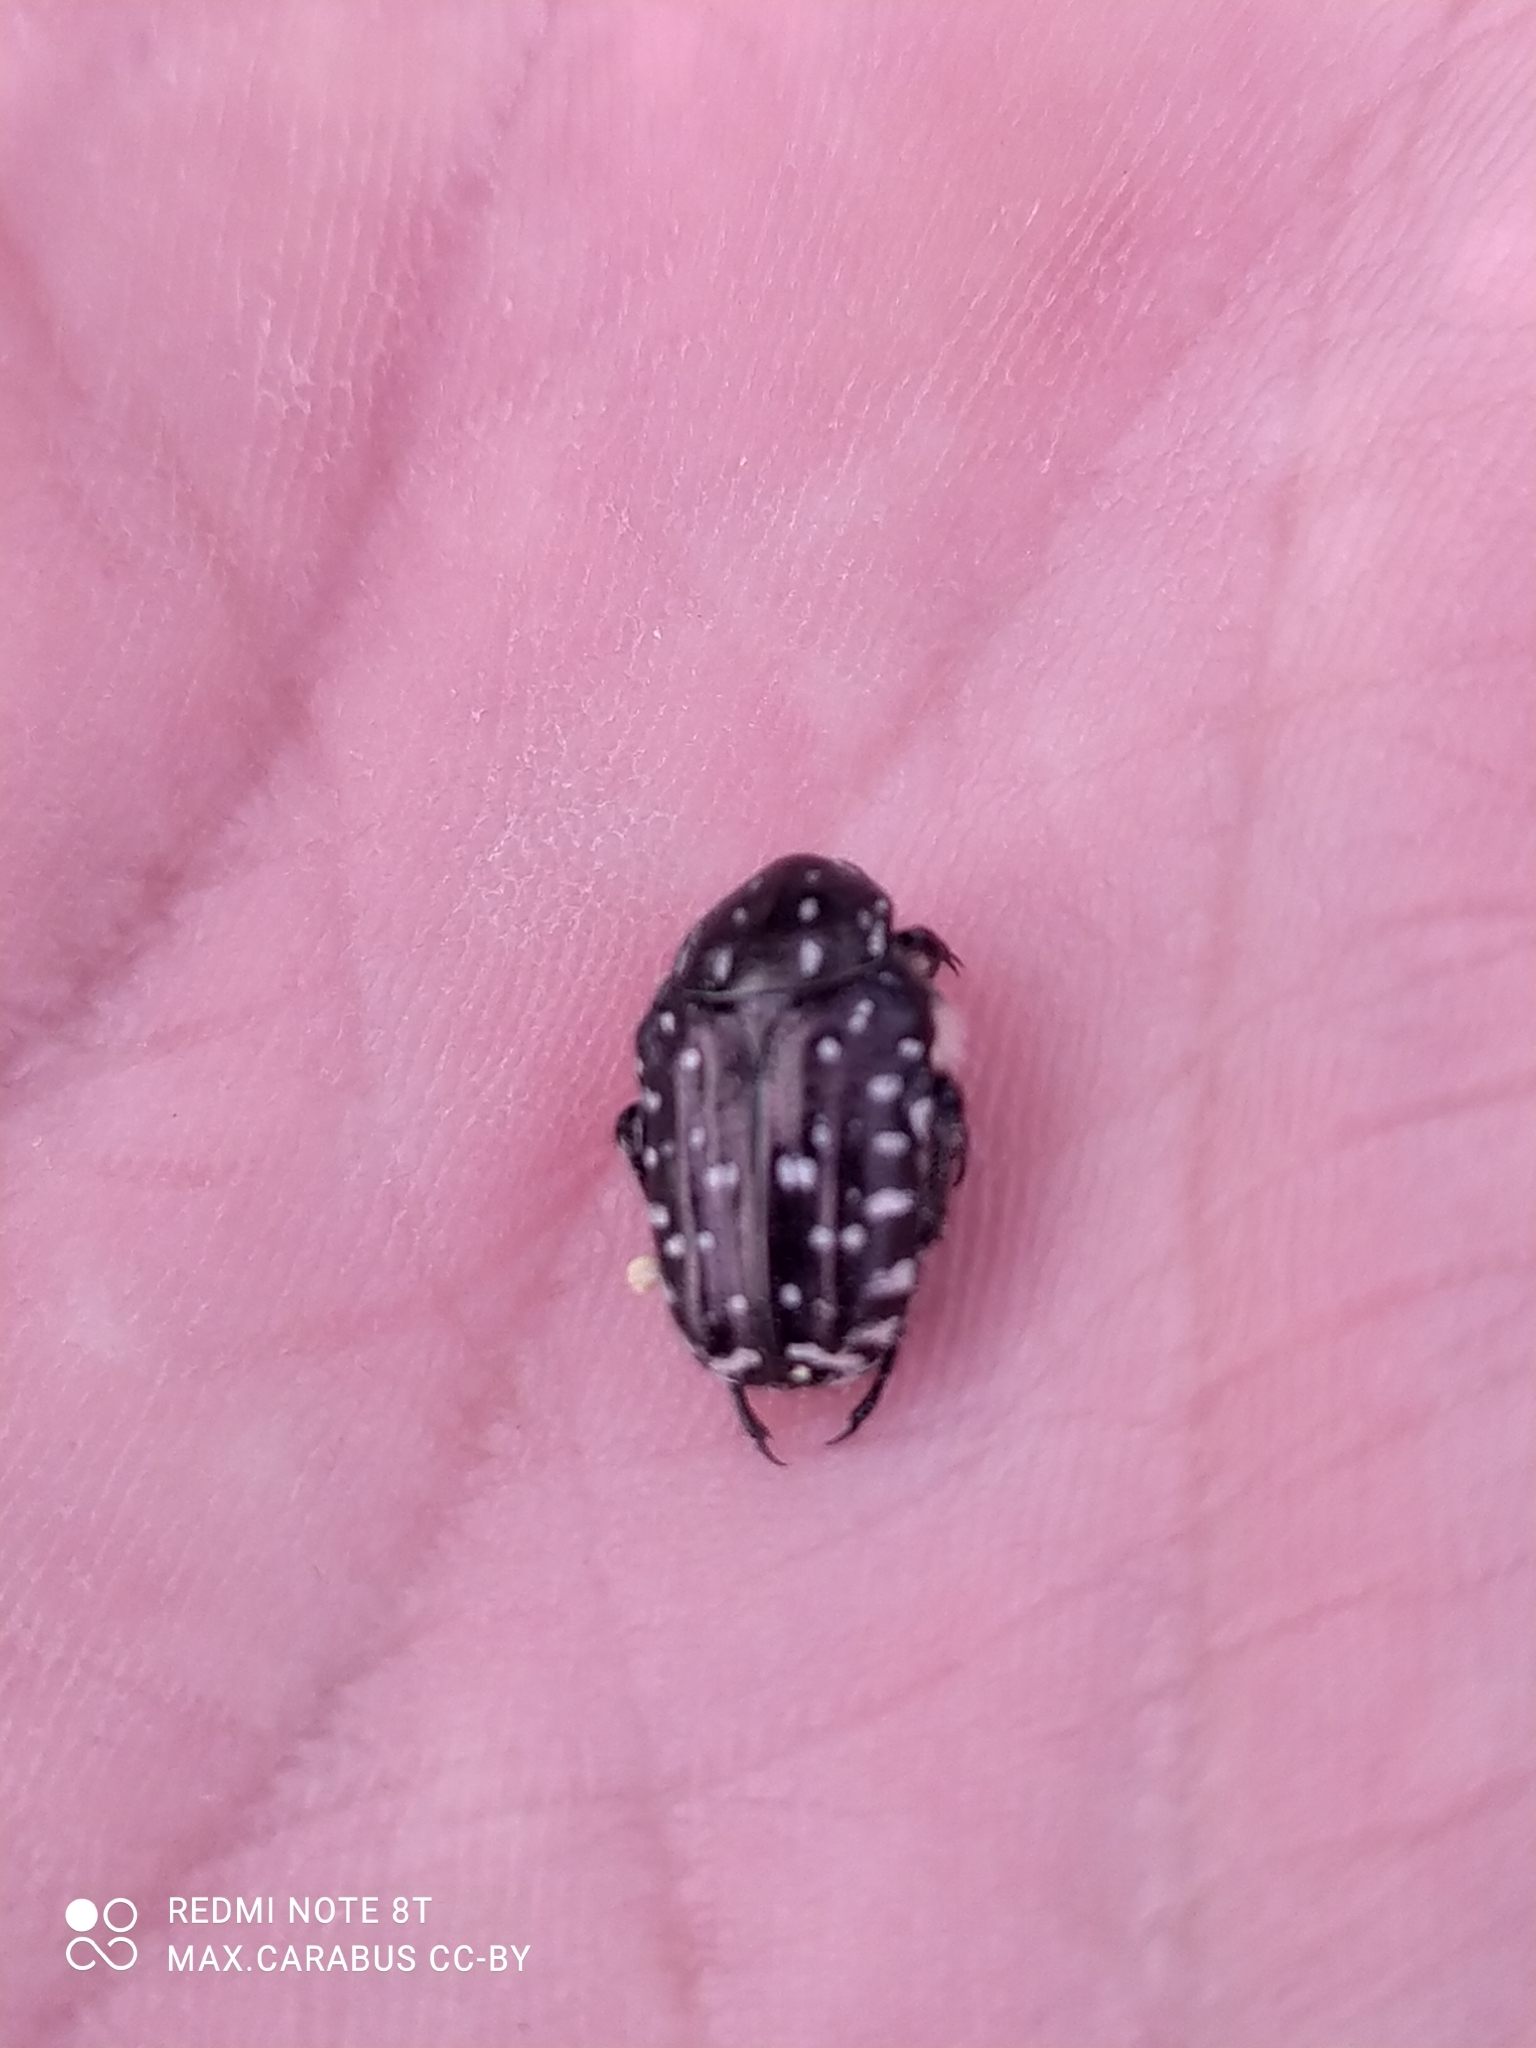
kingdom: Animalia
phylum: Arthropoda
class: Insecta
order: Coleoptera
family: Scarabaeidae
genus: Oxythyrea
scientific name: Oxythyrea funesta
